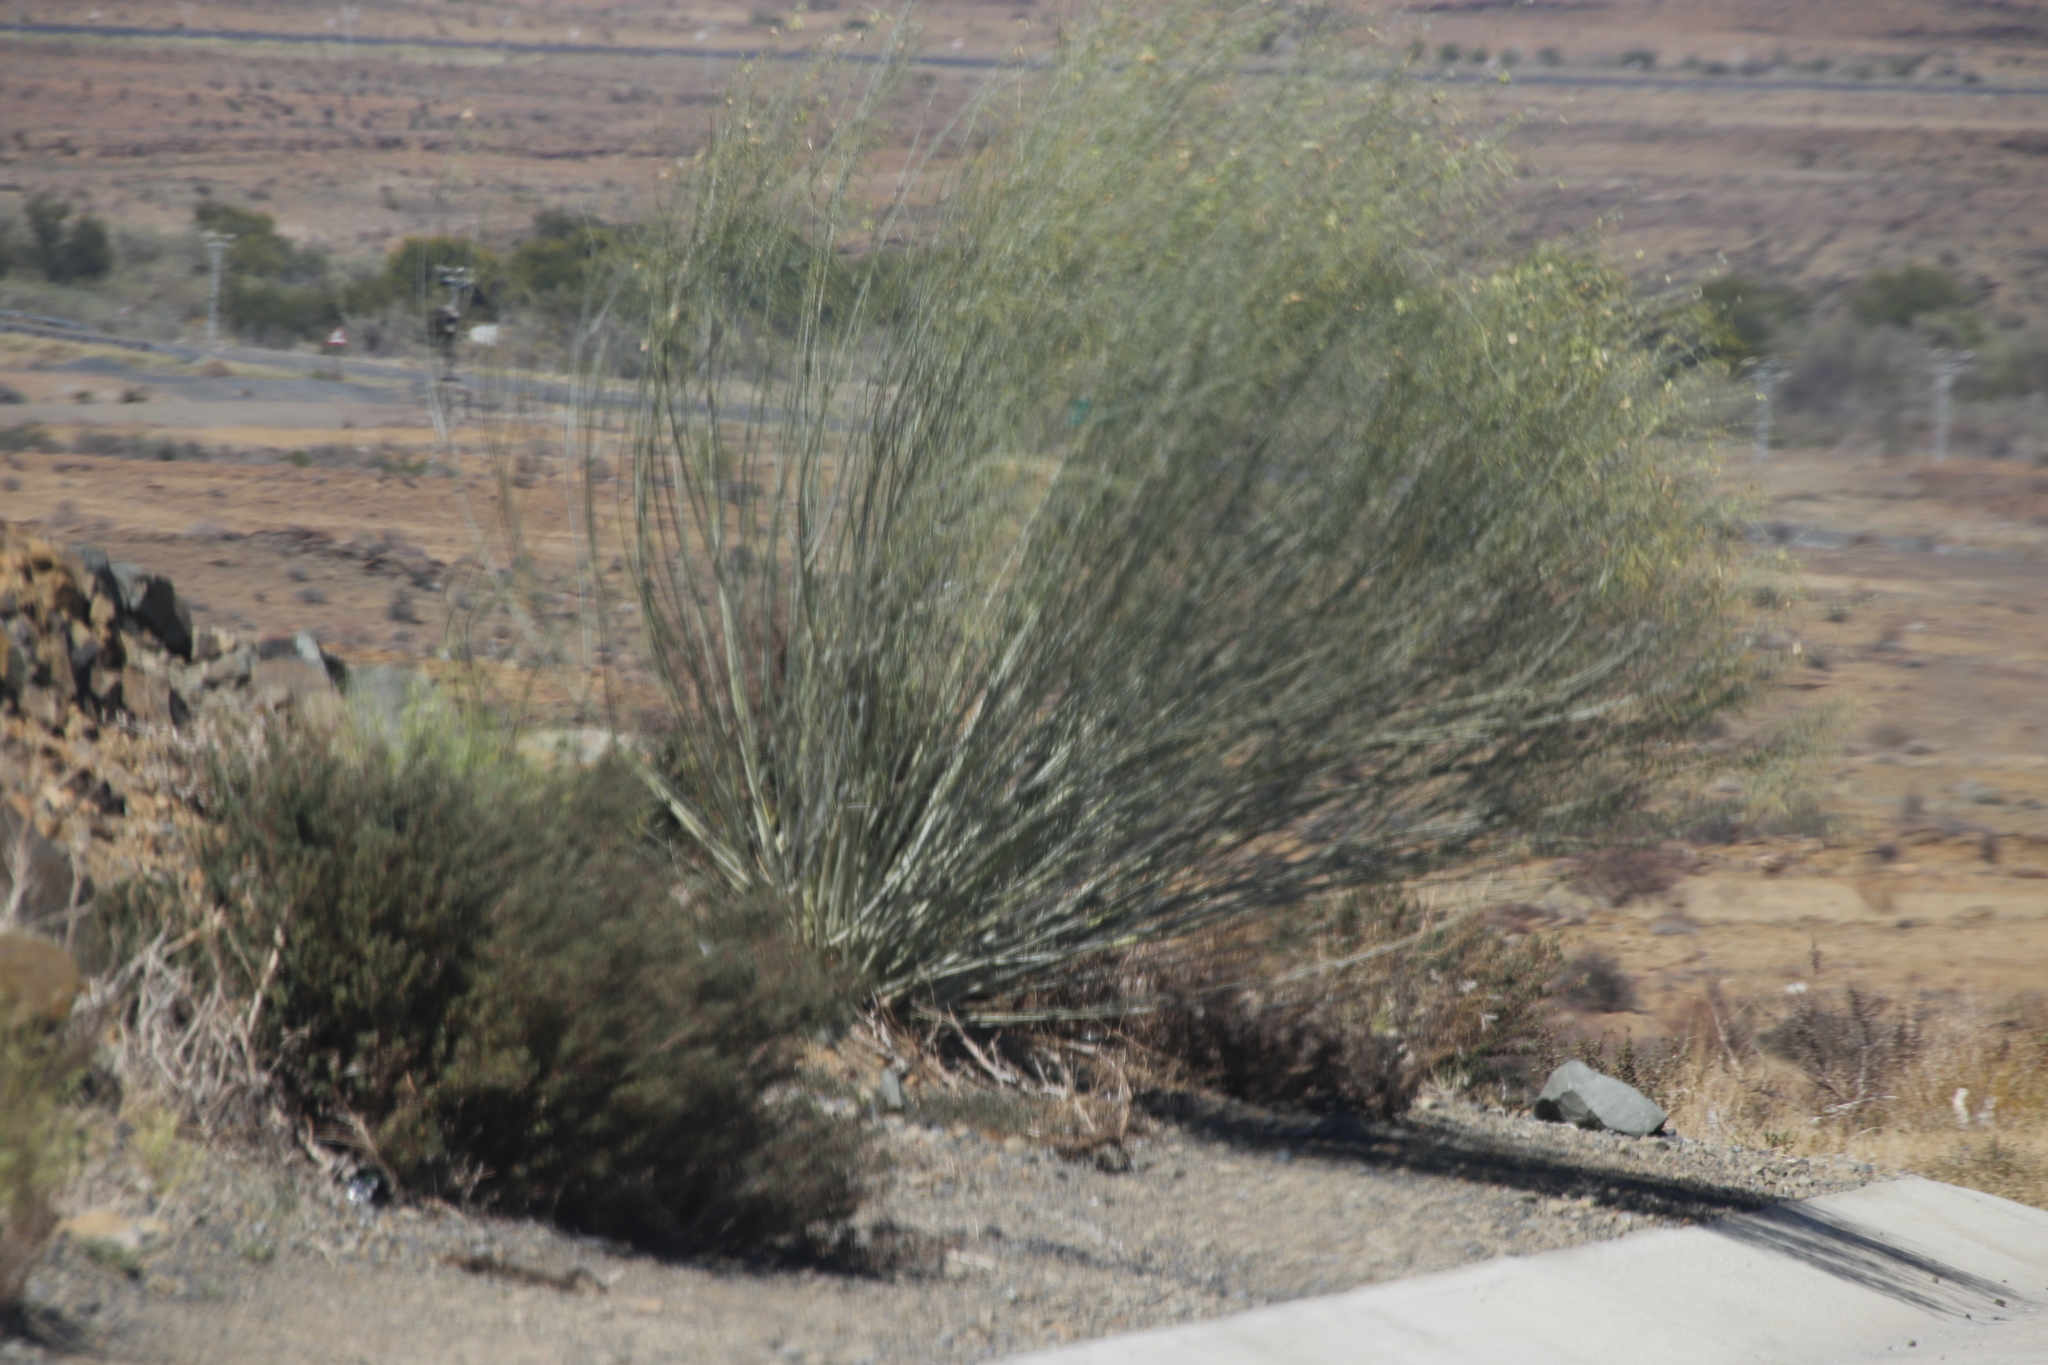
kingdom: Plantae
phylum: Tracheophyta
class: Magnoliopsida
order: Gentianales
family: Apocynaceae
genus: Gomphocarpus
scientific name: Gomphocarpus filiformis
